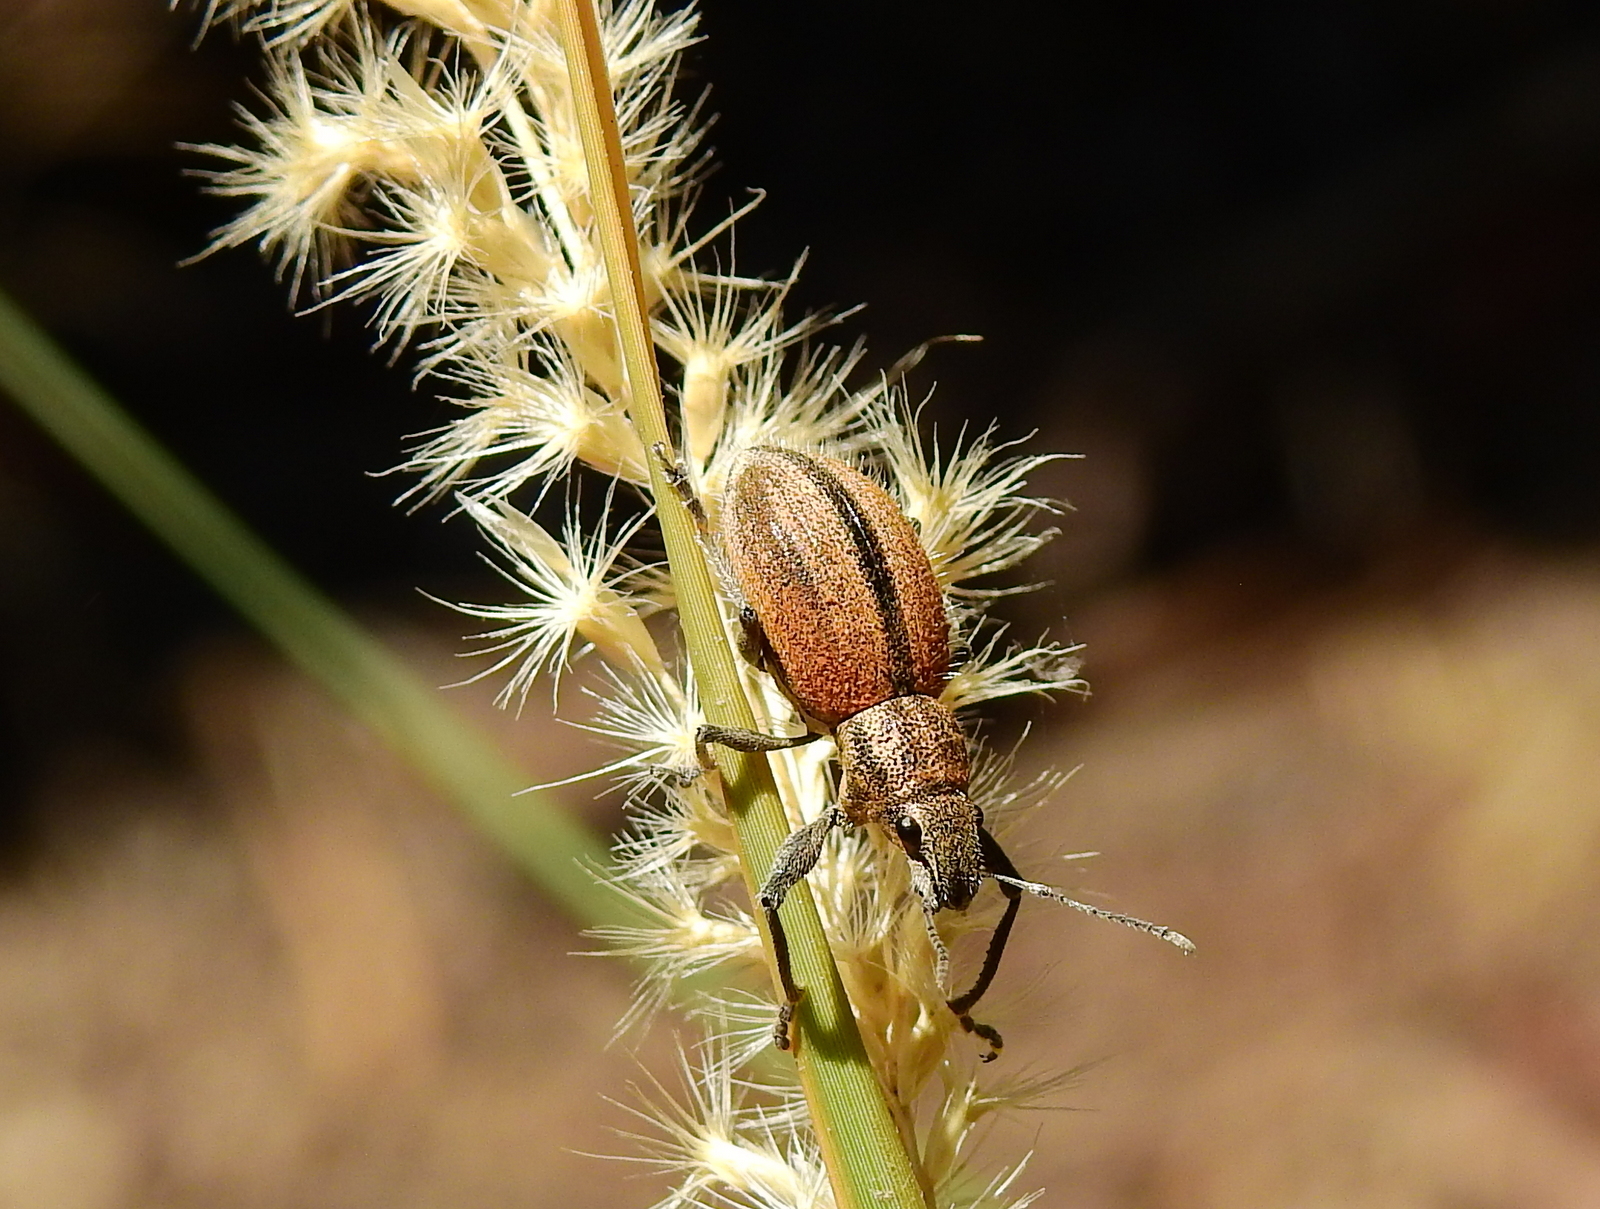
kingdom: Animalia
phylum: Arthropoda
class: Insecta
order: Coleoptera
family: Curculionidae
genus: Naupactus
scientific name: Naupactus verecundus
